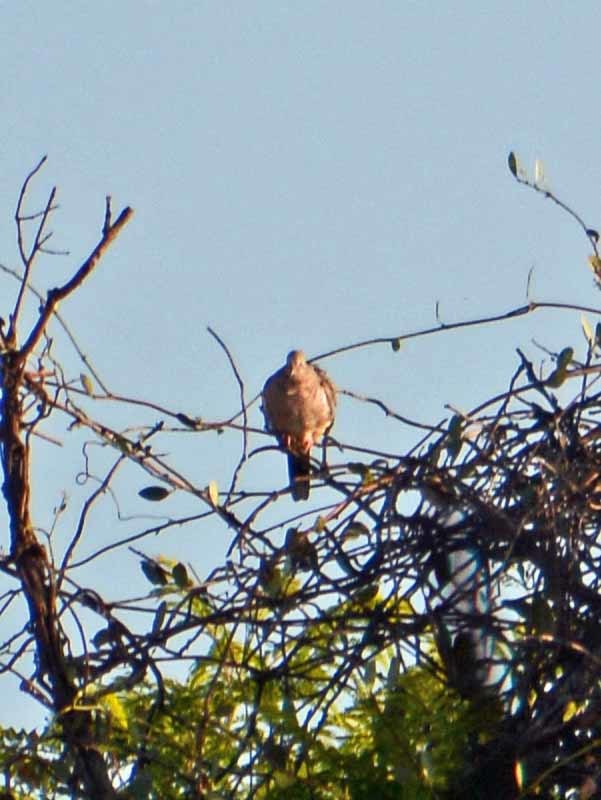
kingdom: Animalia
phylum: Chordata
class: Aves
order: Columbiformes
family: Columbidae
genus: Columbina
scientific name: Columbina inca
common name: Inca dove
